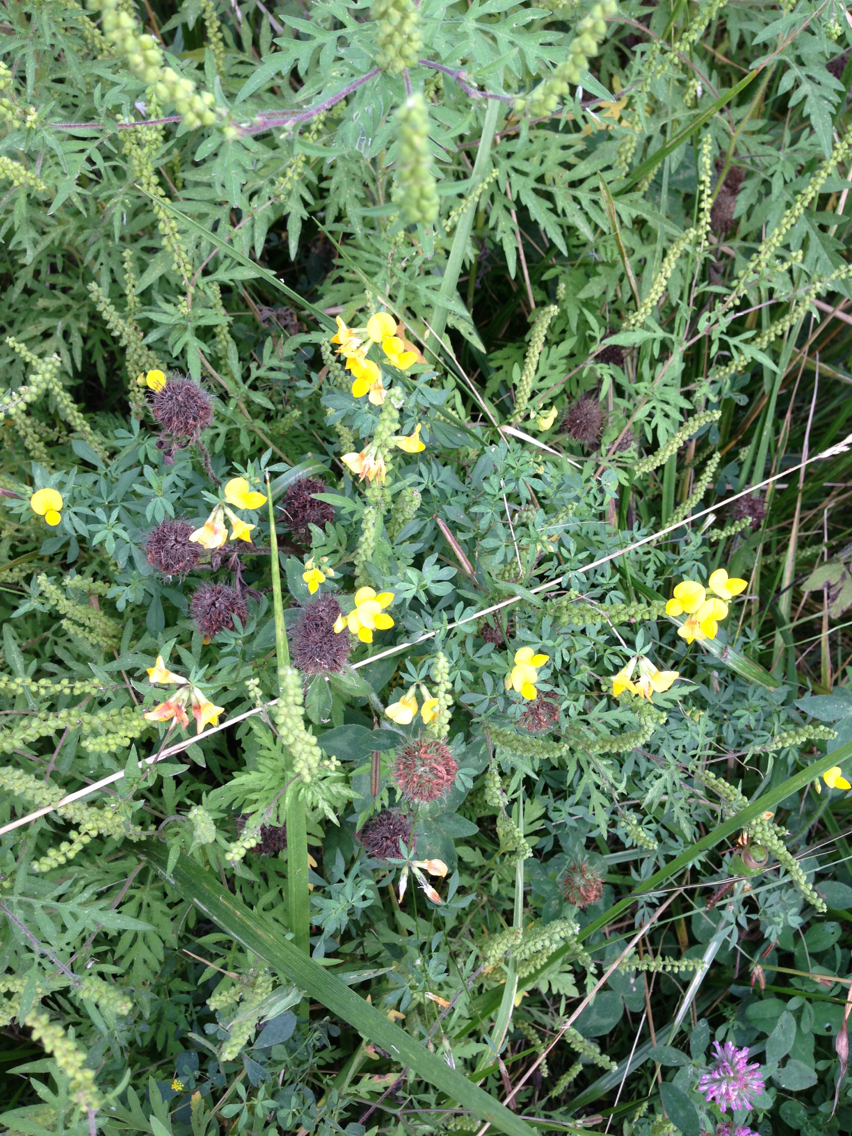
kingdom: Plantae
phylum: Tracheophyta
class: Magnoliopsida
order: Fabales
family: Fabaceae
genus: Lotus
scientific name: Lotus corniculatus
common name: Common bird's-foot-trefoil
